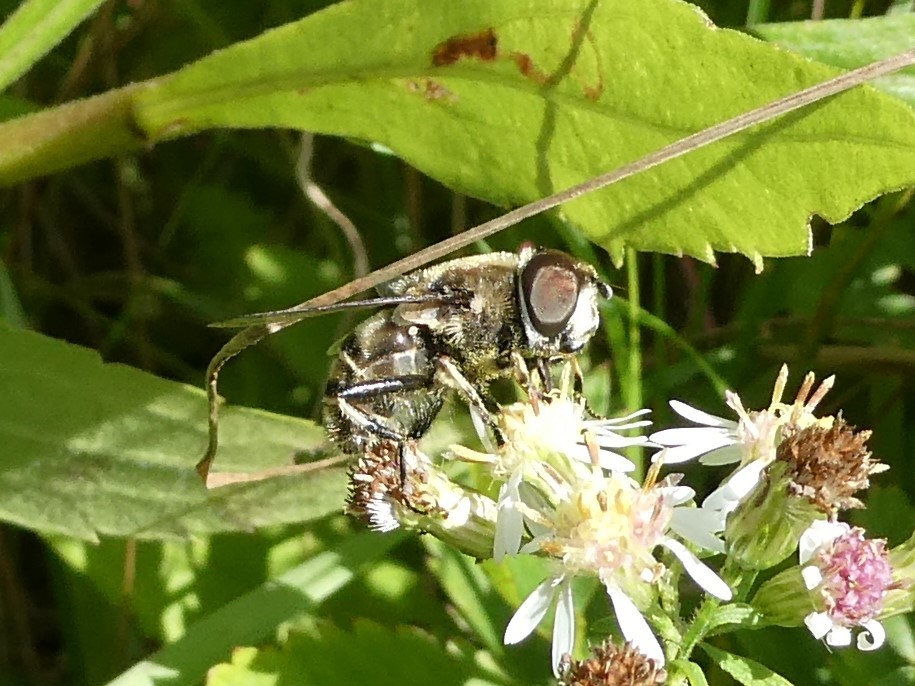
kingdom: Animalia
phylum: Arthropoda
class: Insecta
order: Diptera
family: Syrphidae
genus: Eristalis
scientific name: Eristalis dimidiata
